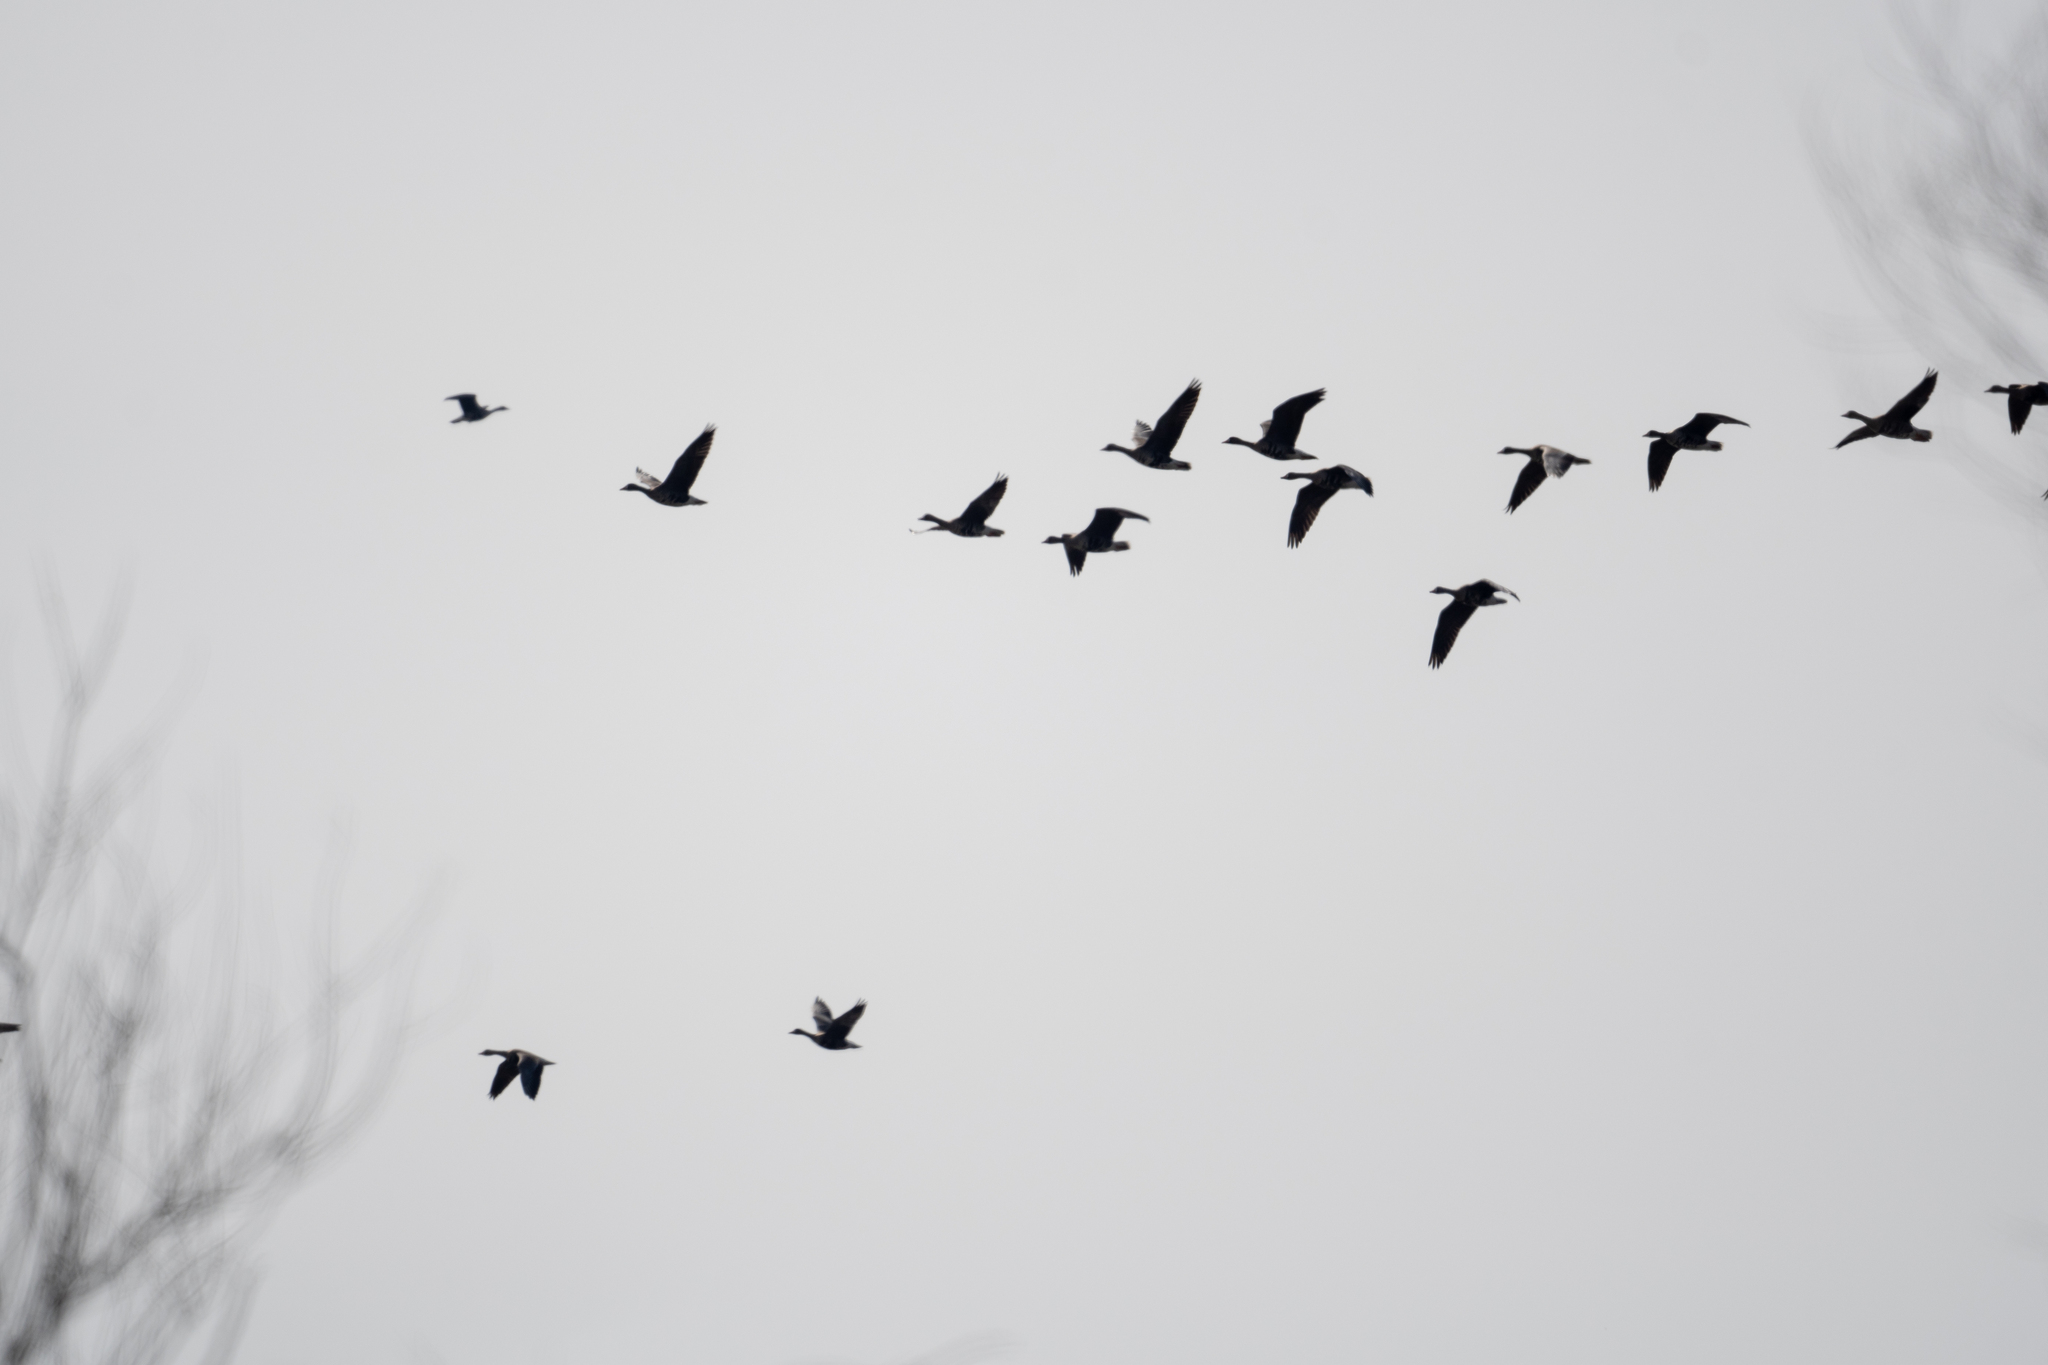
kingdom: Animalia
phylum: Chordata
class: Aves
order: Anseriformes
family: Anatidae
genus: Anser
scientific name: Anser albifrons
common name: Greater white-fronted goose
